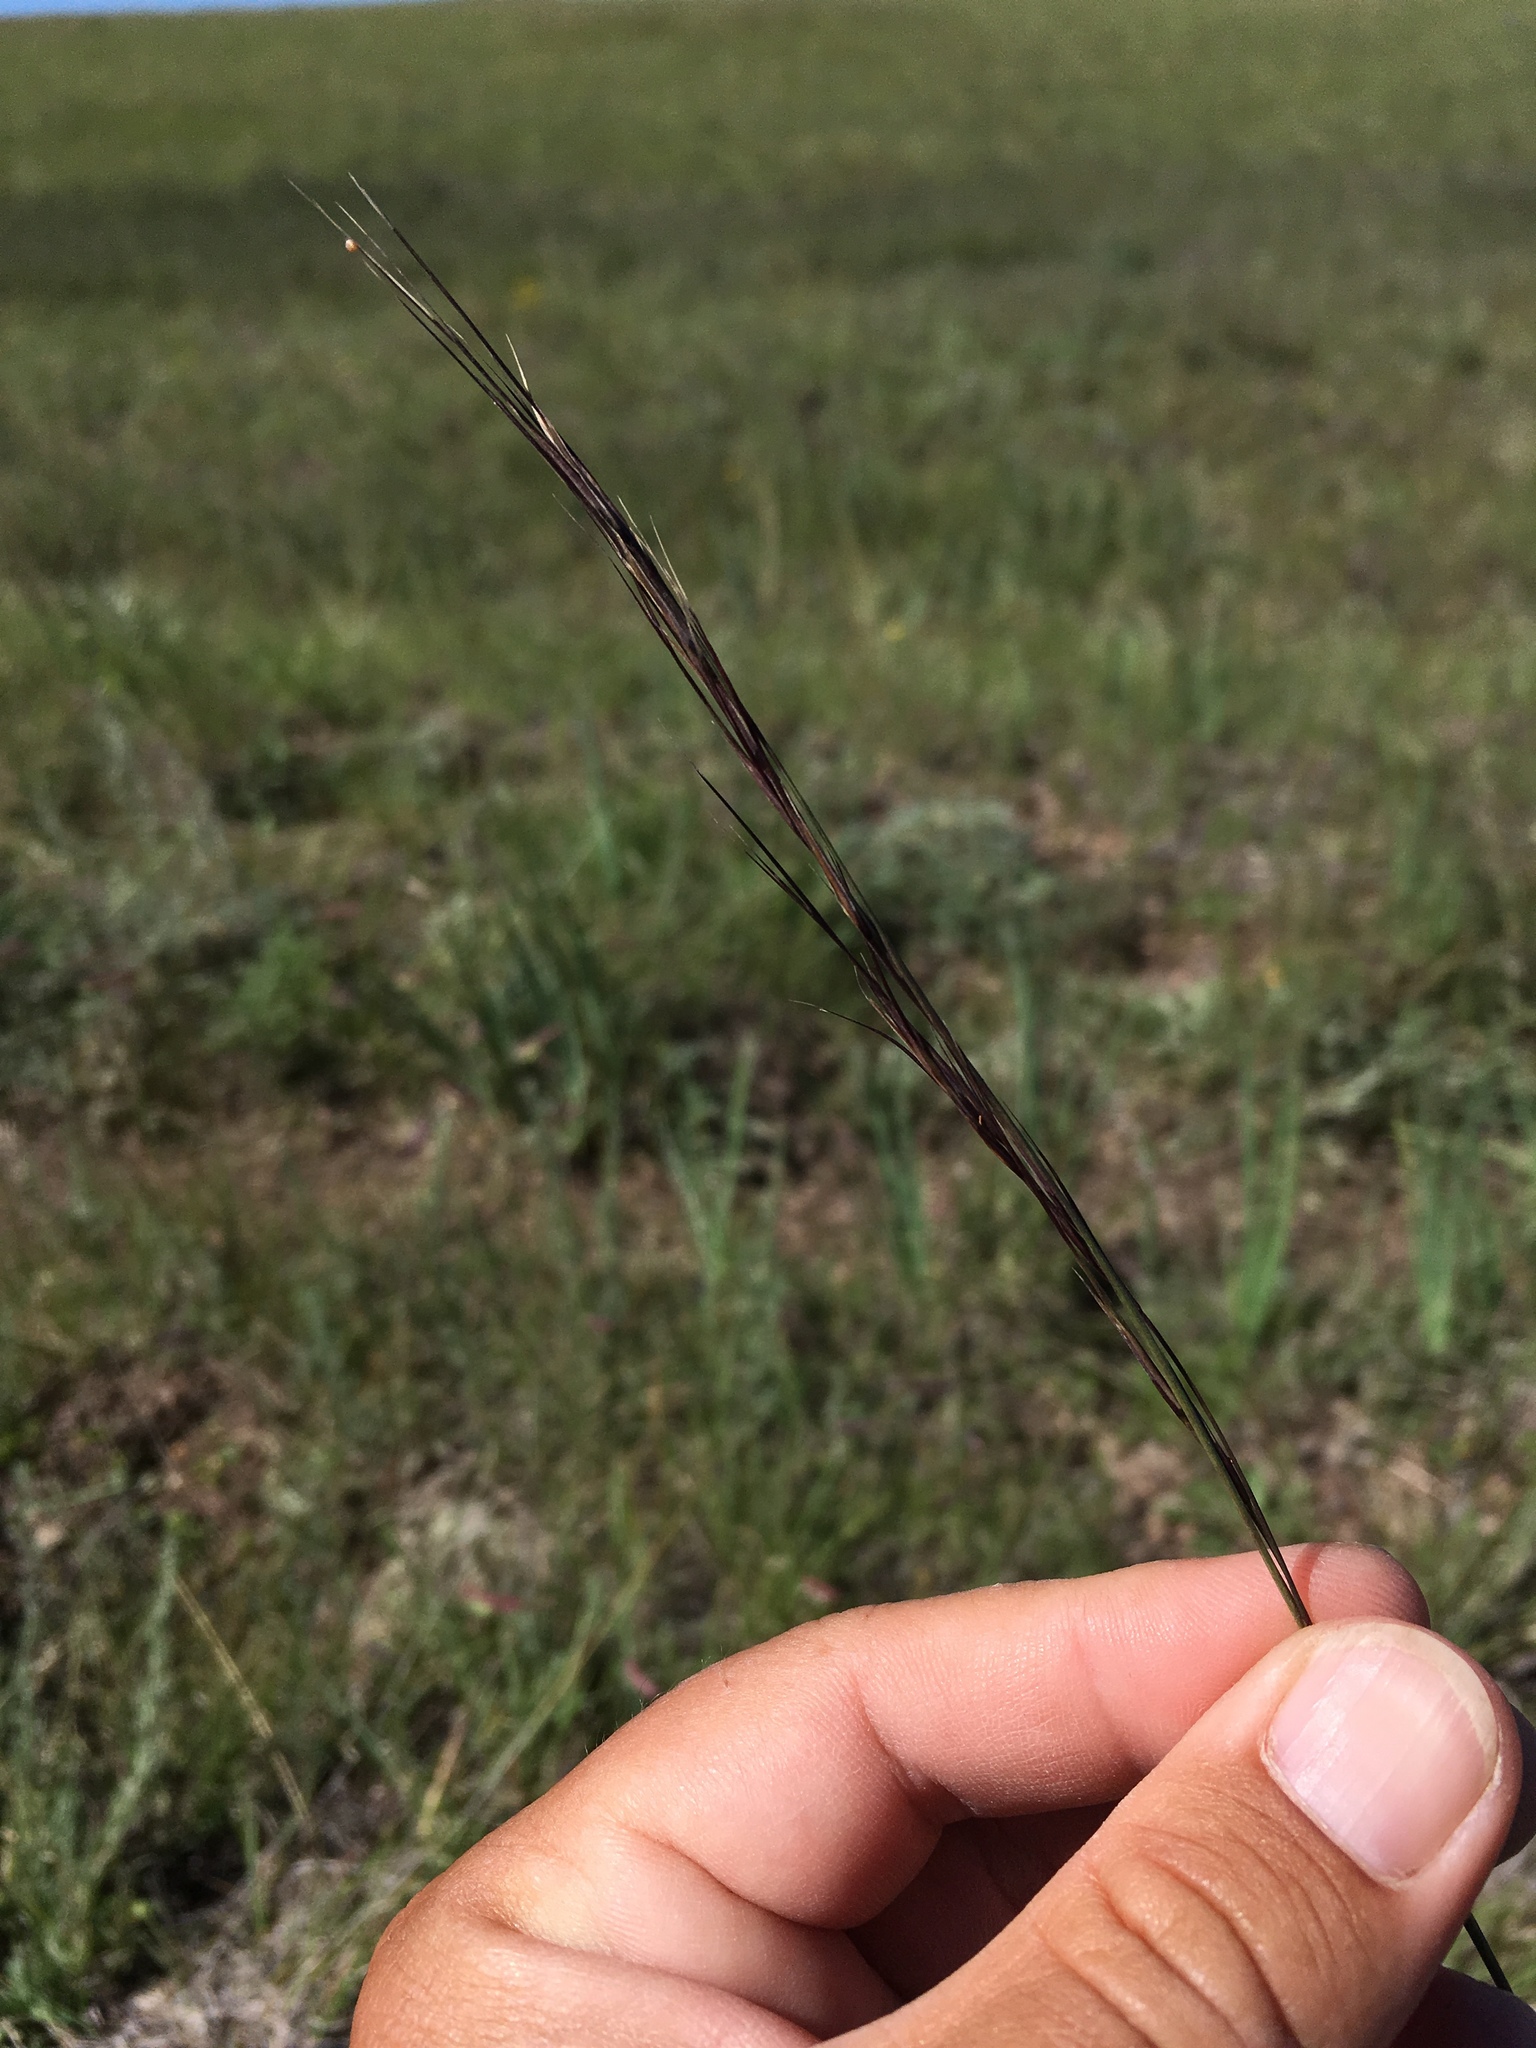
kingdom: Plantae
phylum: Tracheophyta
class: Liliopsida
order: Poales
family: Poaceae
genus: Aristida
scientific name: Aristida arizonica
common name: Arizona threeawn
